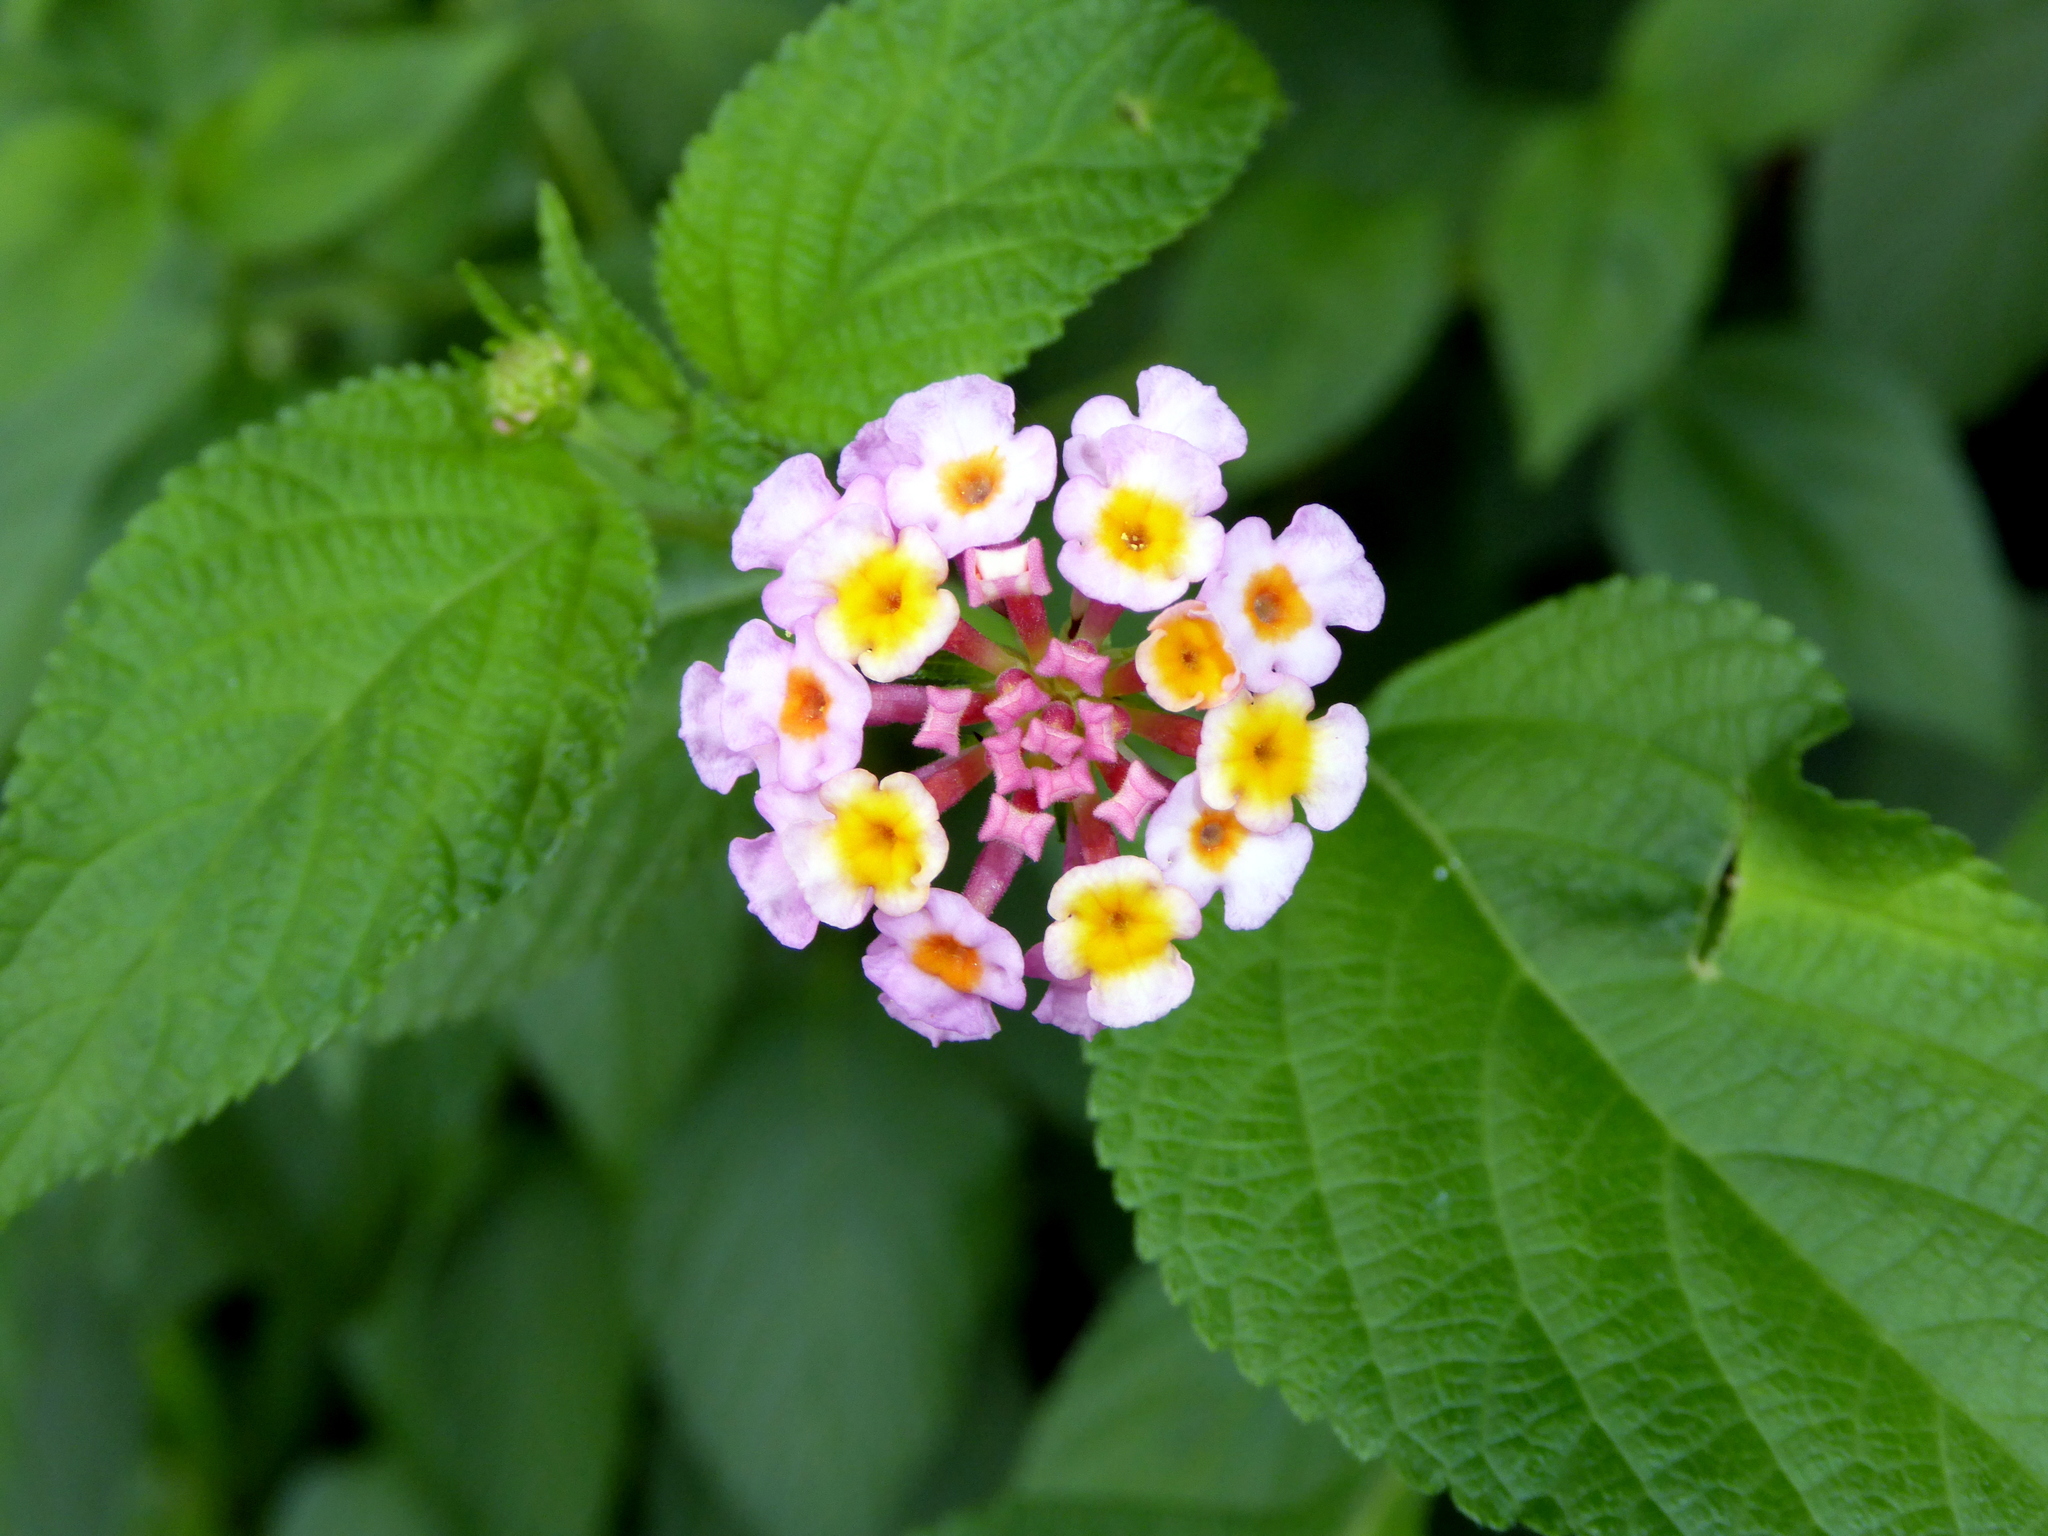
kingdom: Plantae
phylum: Tracheophyta
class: Magnoliopsida
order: Lamiales
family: Verbenaceae
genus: Lantana
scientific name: Lantana camara
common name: Lantana
